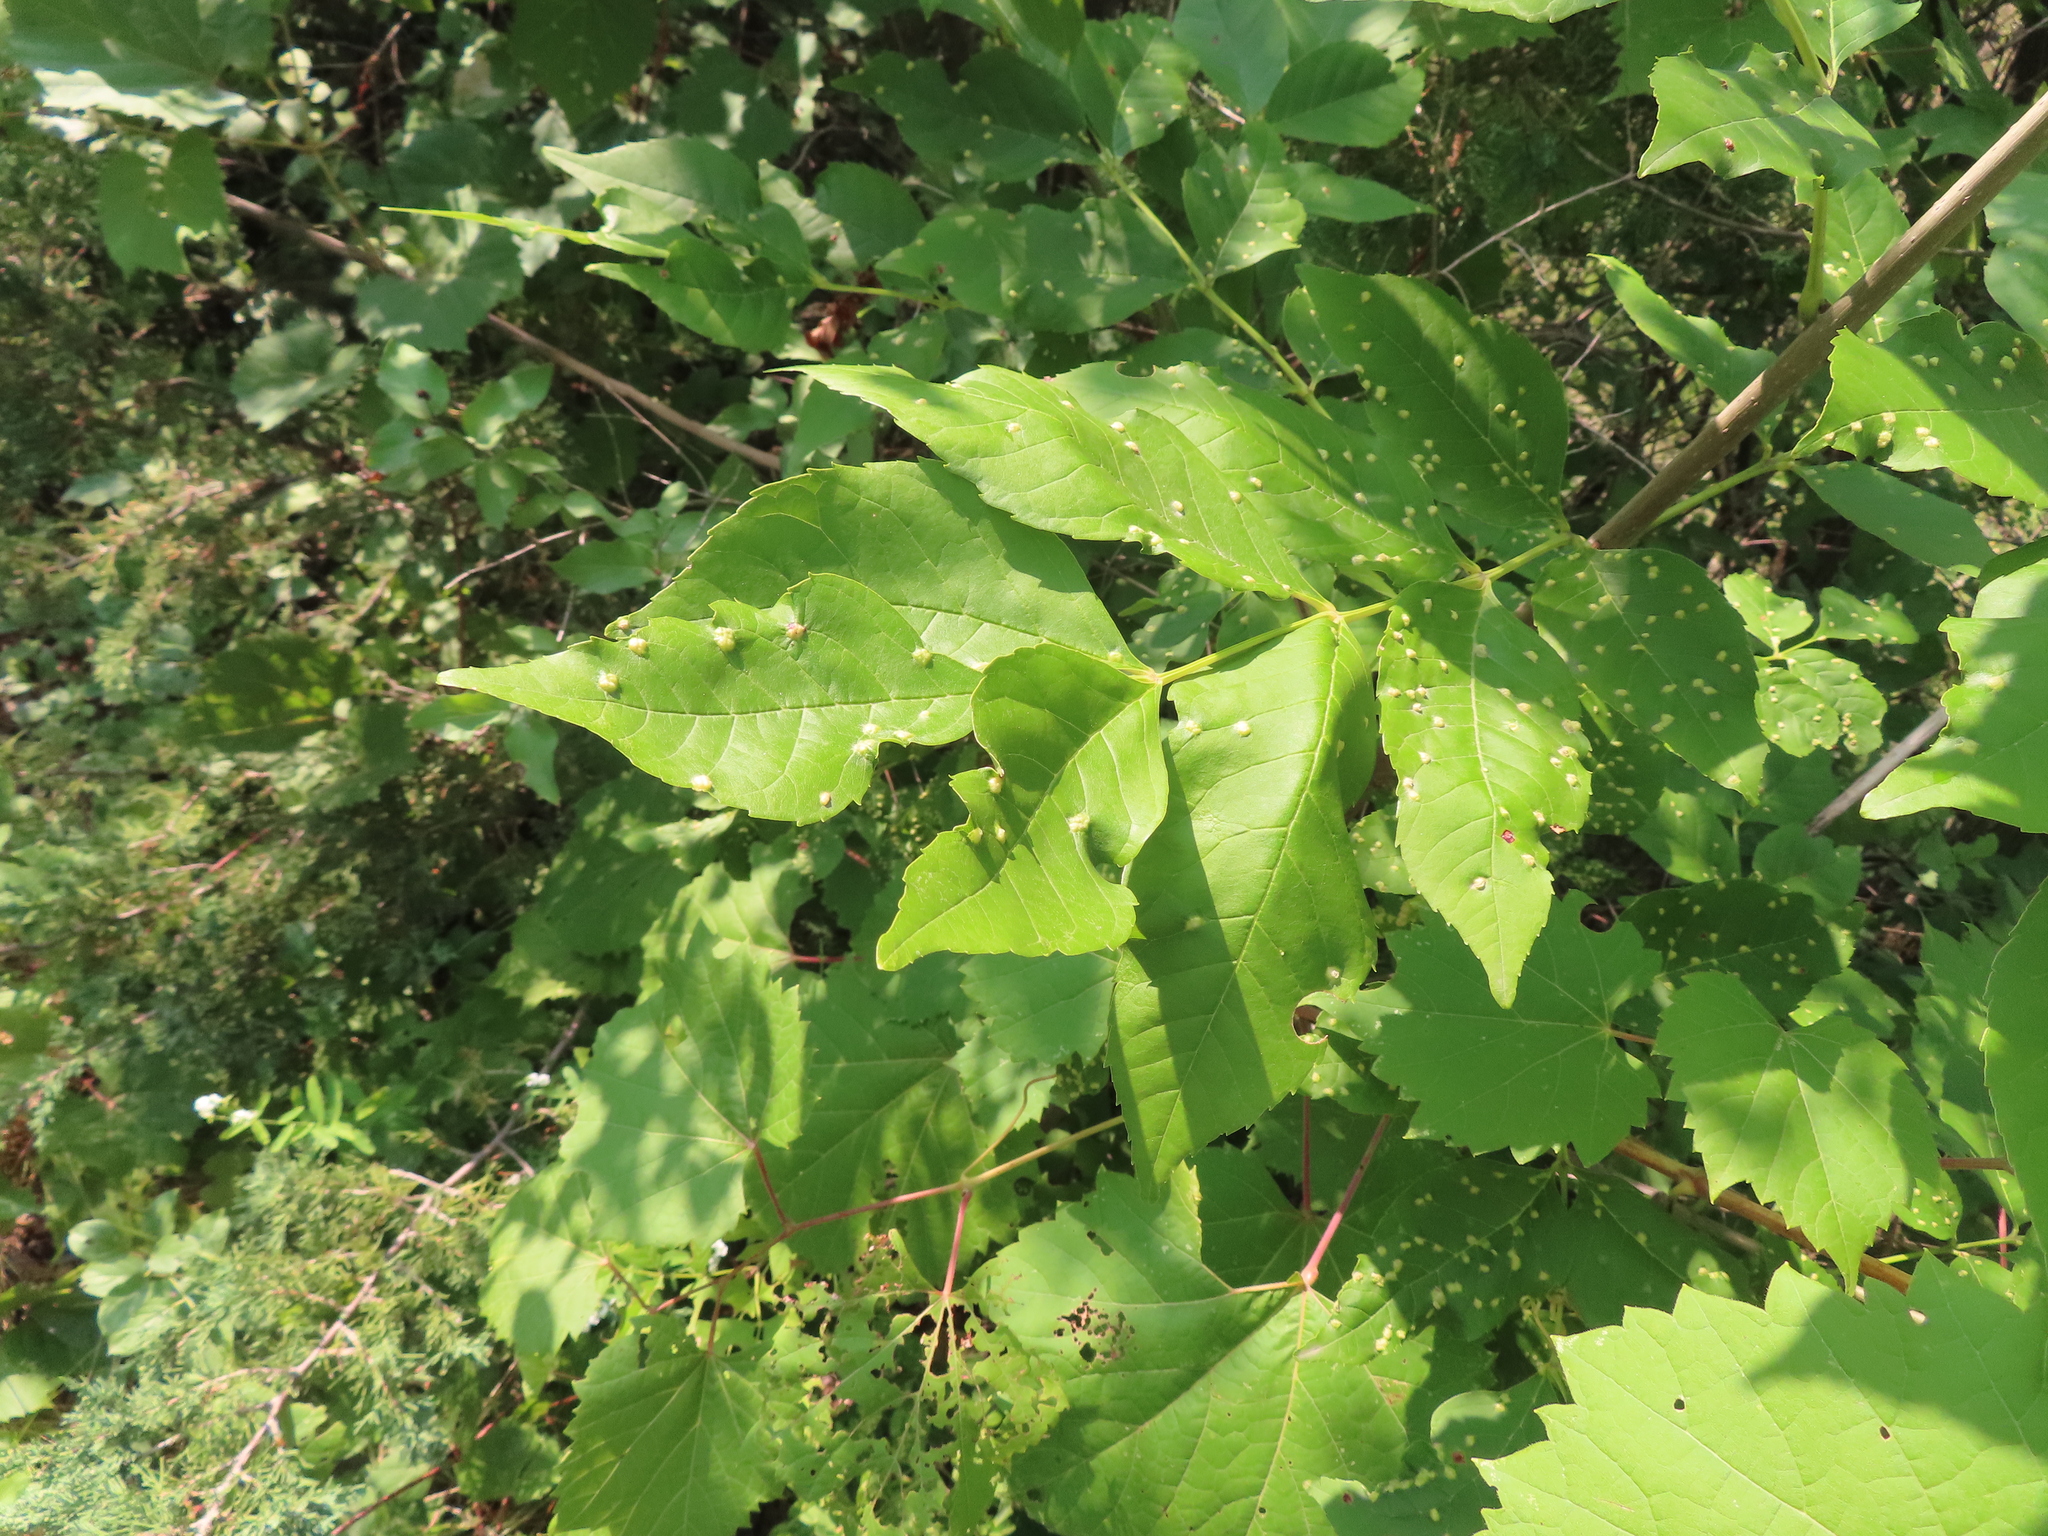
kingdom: Animalia
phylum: Arthropoda
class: Arachnida
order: Trombidiformes
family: Eriophyidae
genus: Aceria
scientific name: Aceria fraxinicola
